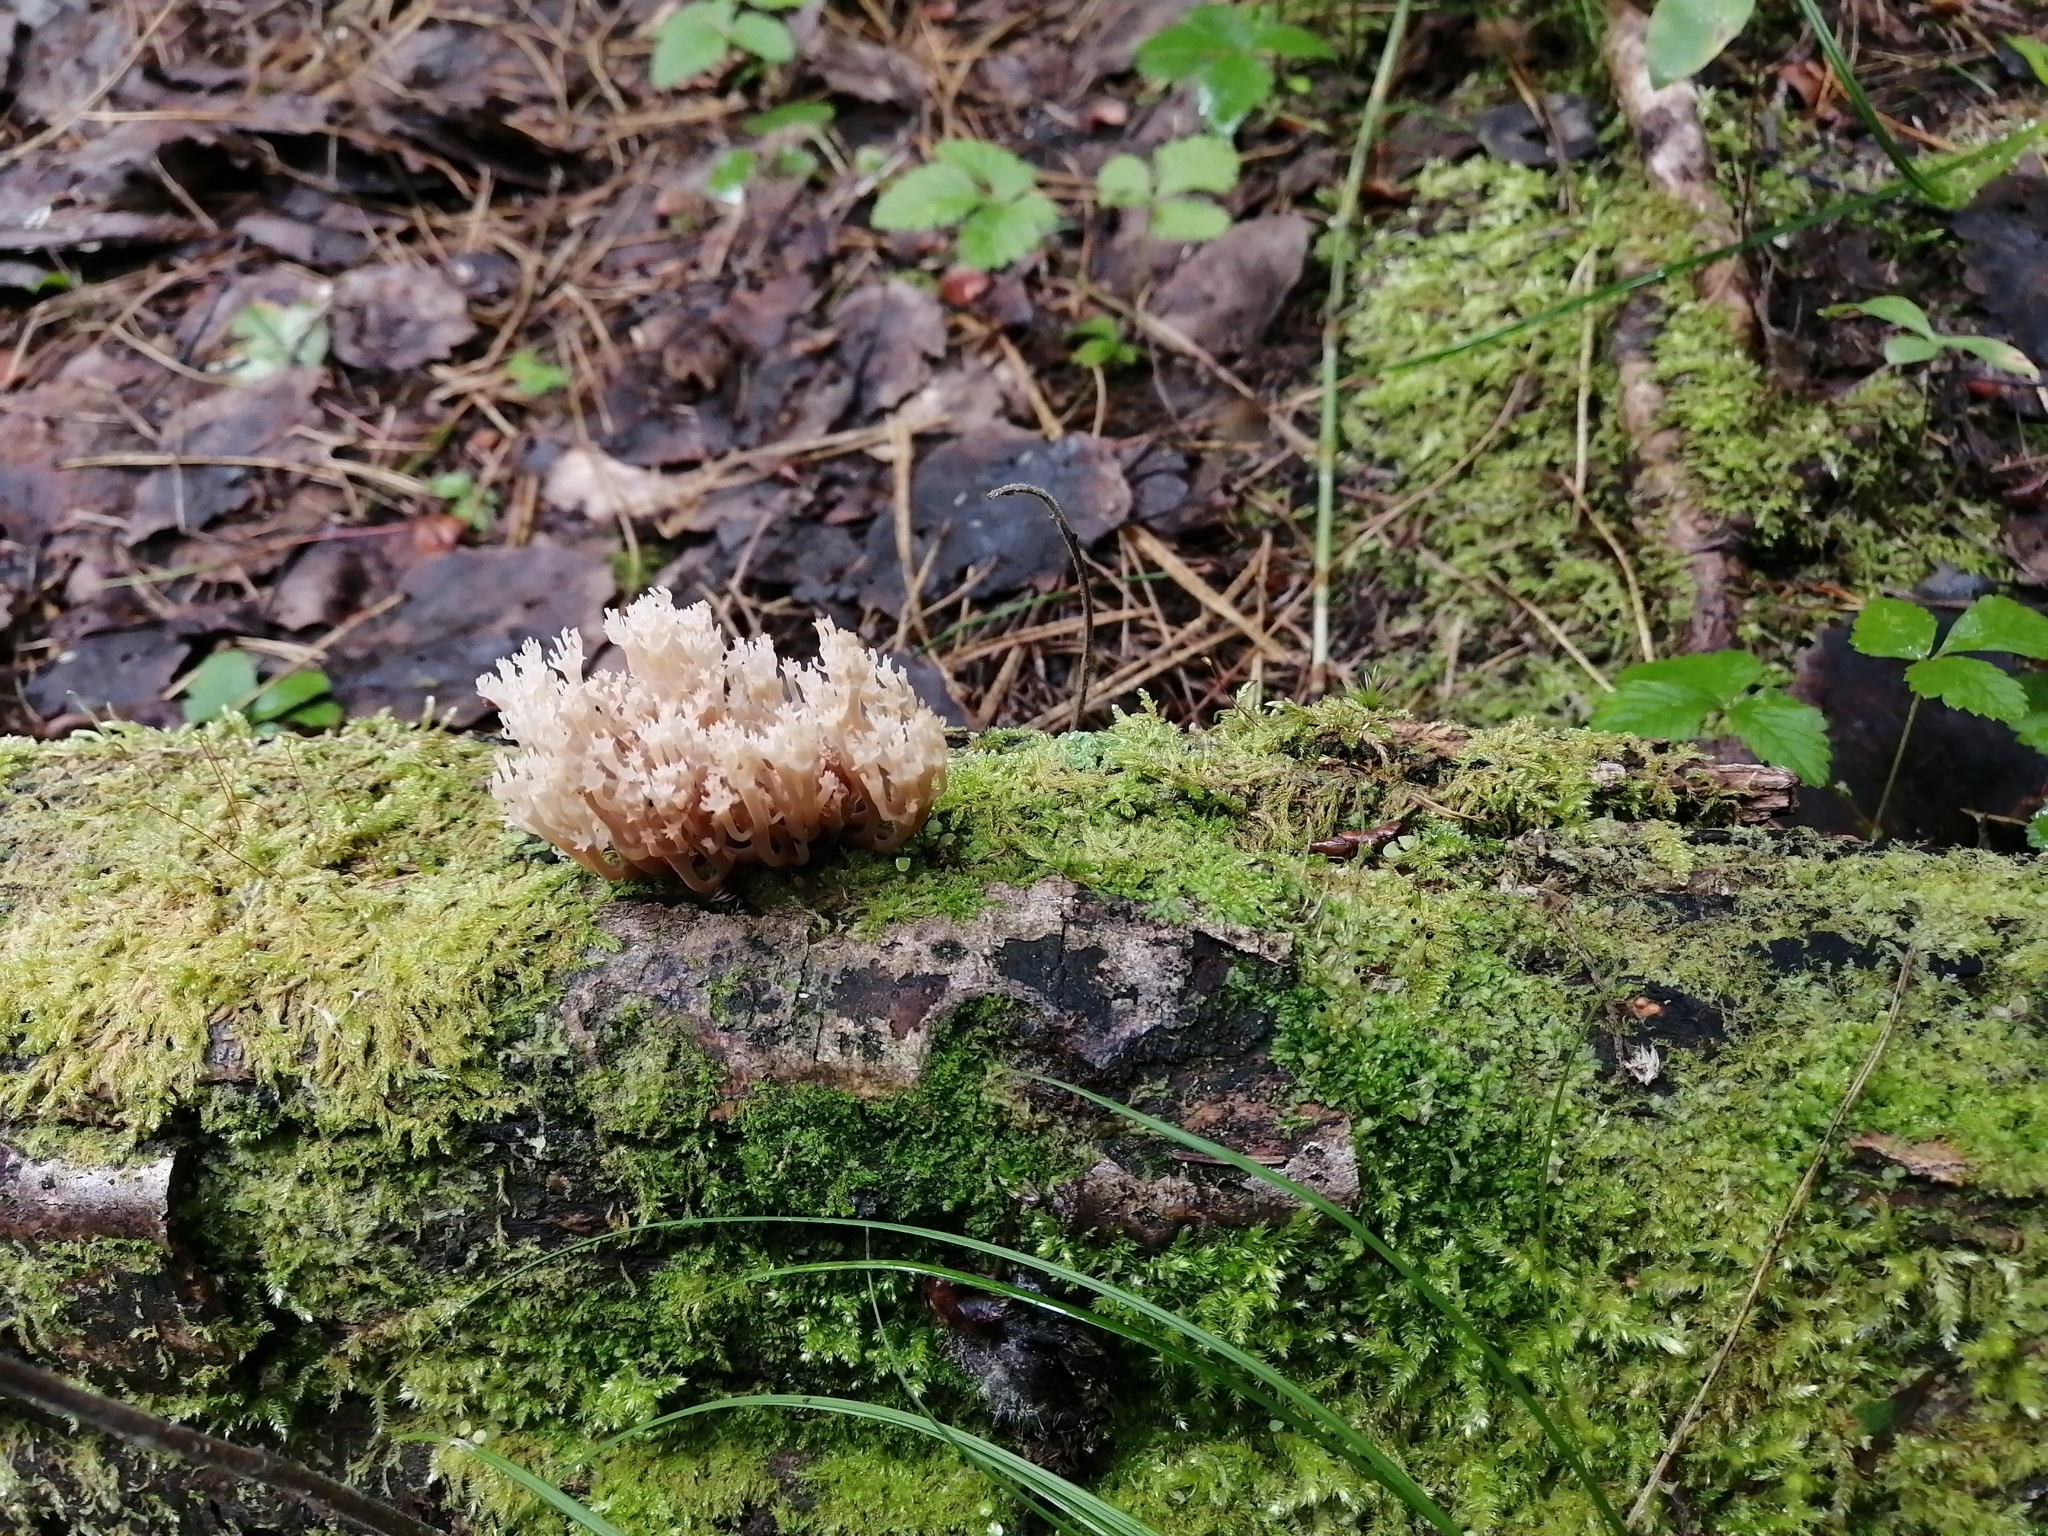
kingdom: Fungi
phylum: Basidiomycota
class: Agaricomycetes
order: Russulales
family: Auriscalpiaceae
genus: Artomyces
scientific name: Artomyces pyxidatus
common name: Crown-tipped coral fungus
